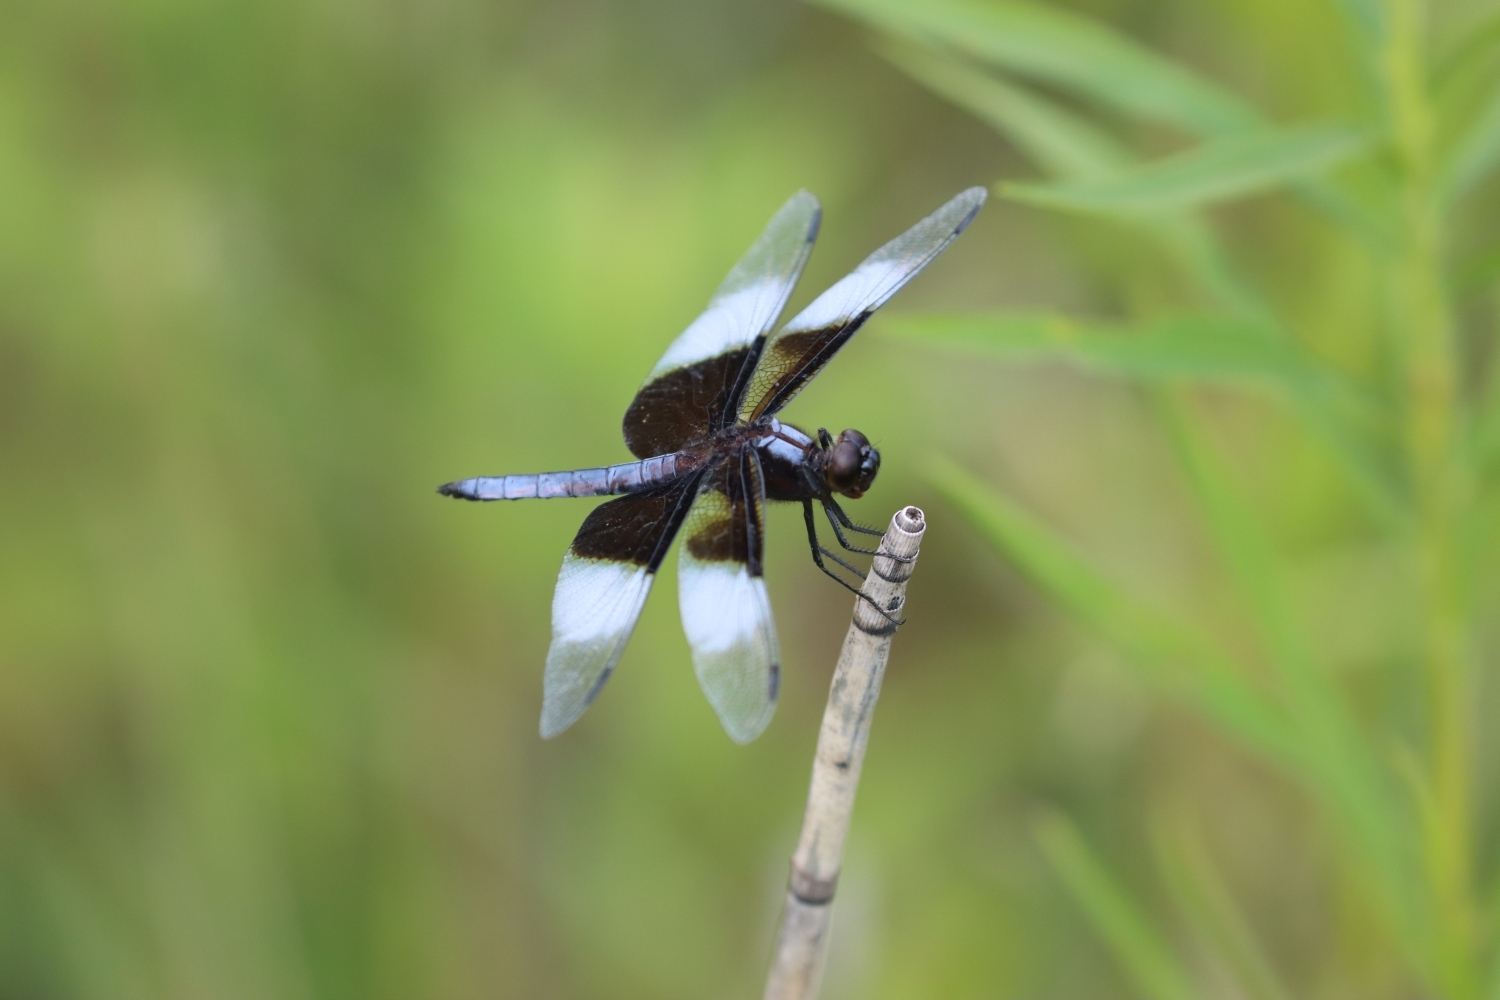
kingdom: Animalia
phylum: Arthropoda
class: Insecta
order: Odonata
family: Libellulidae
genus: Libellula
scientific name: Libellula luctuosa
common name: Widow skimmer
